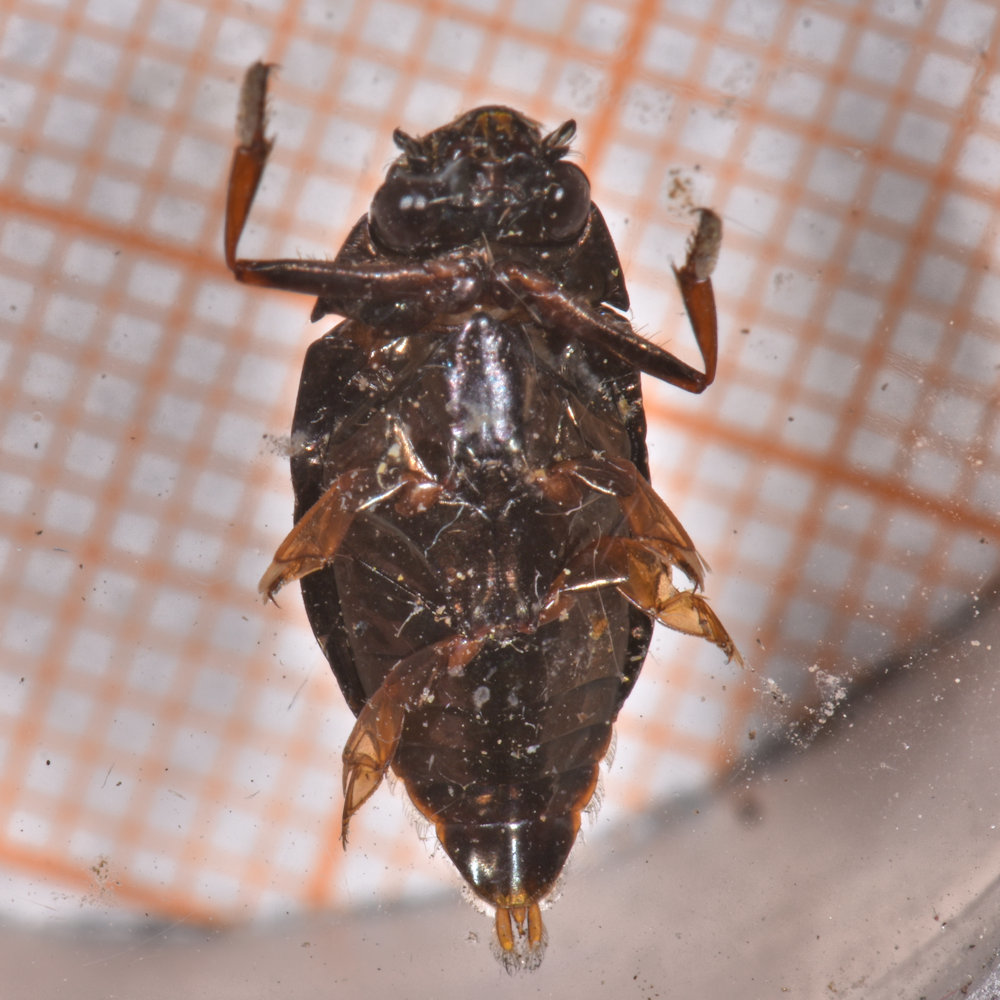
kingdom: Animalia
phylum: Arthropoda
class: Insecta
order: Coleoptera
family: Gyrinidae
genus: Dineutus
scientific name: Dineutus assimilis
